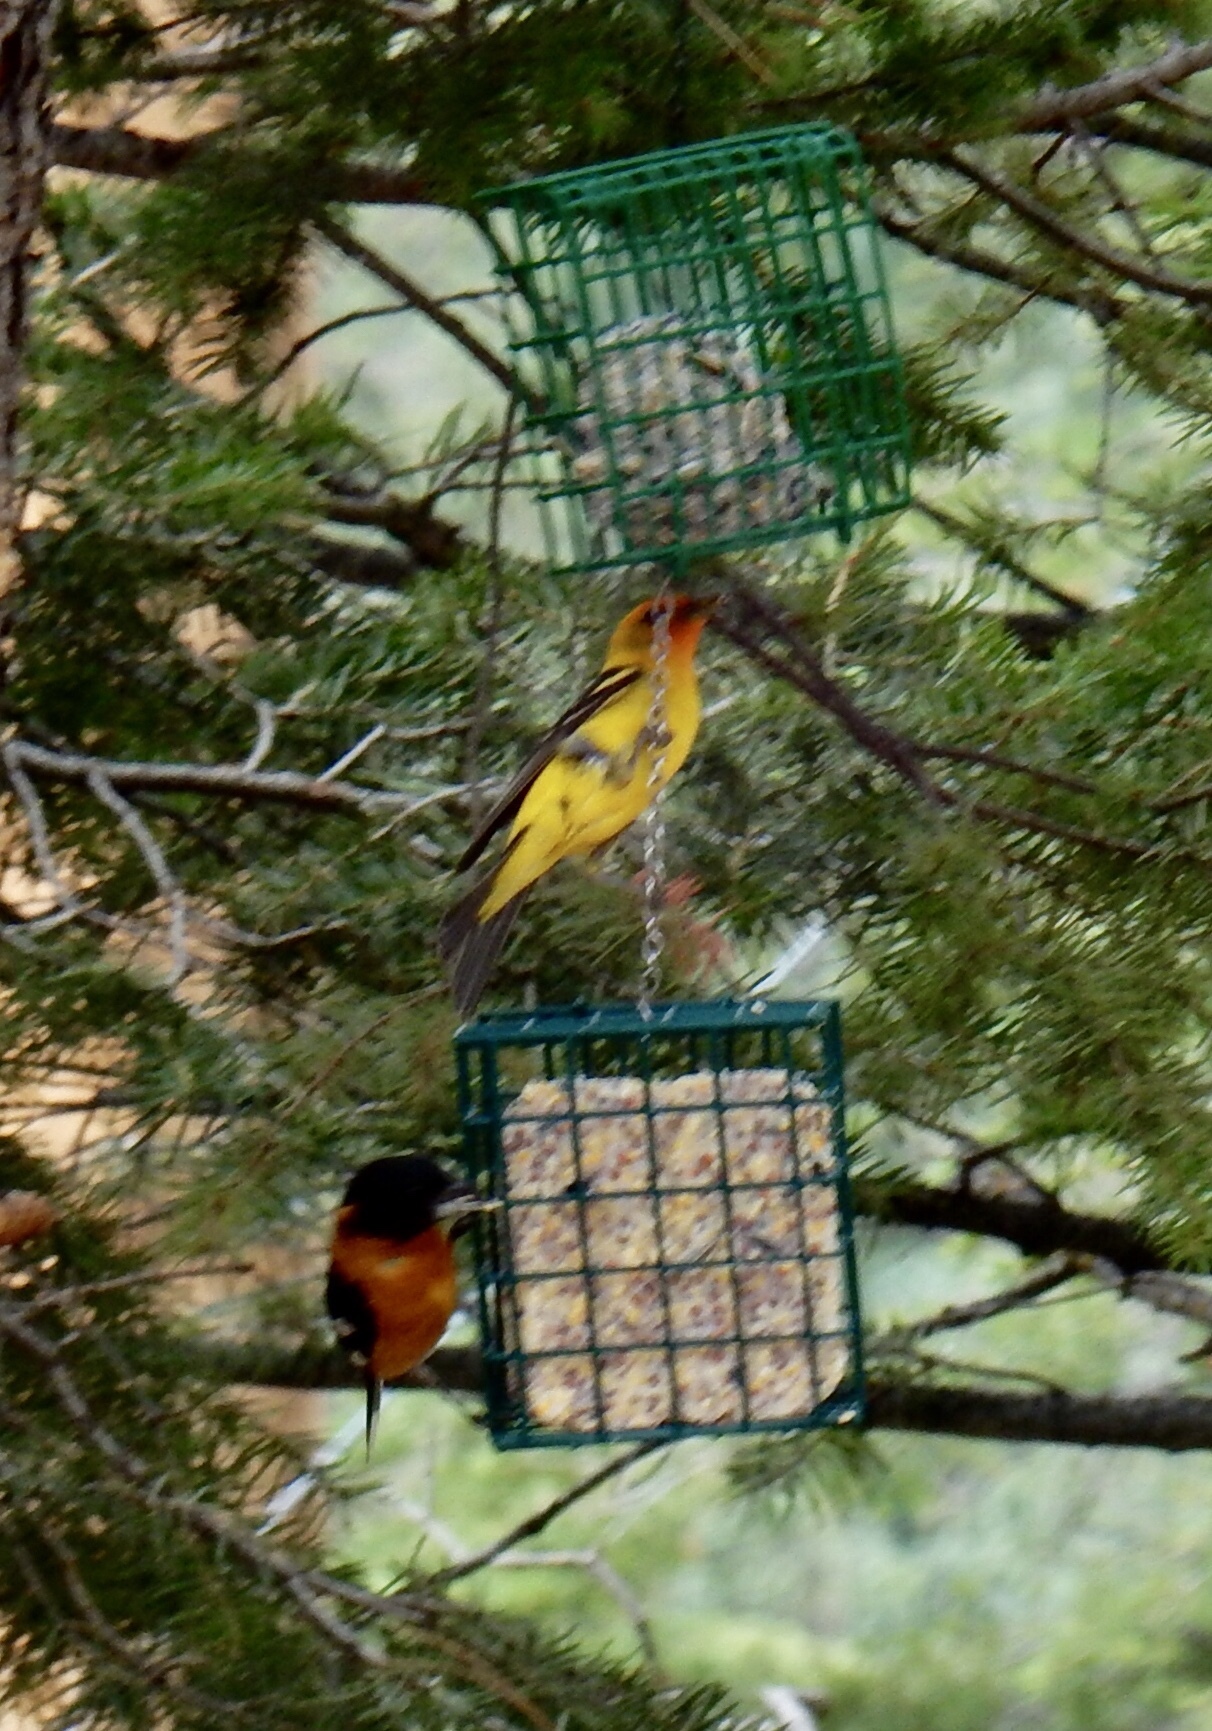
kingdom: Animalia
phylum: Chordata
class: Aves
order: Passeriformes
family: Cardinalidae
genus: Piranga
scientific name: Piranga ludoviciana
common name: Western tanager
